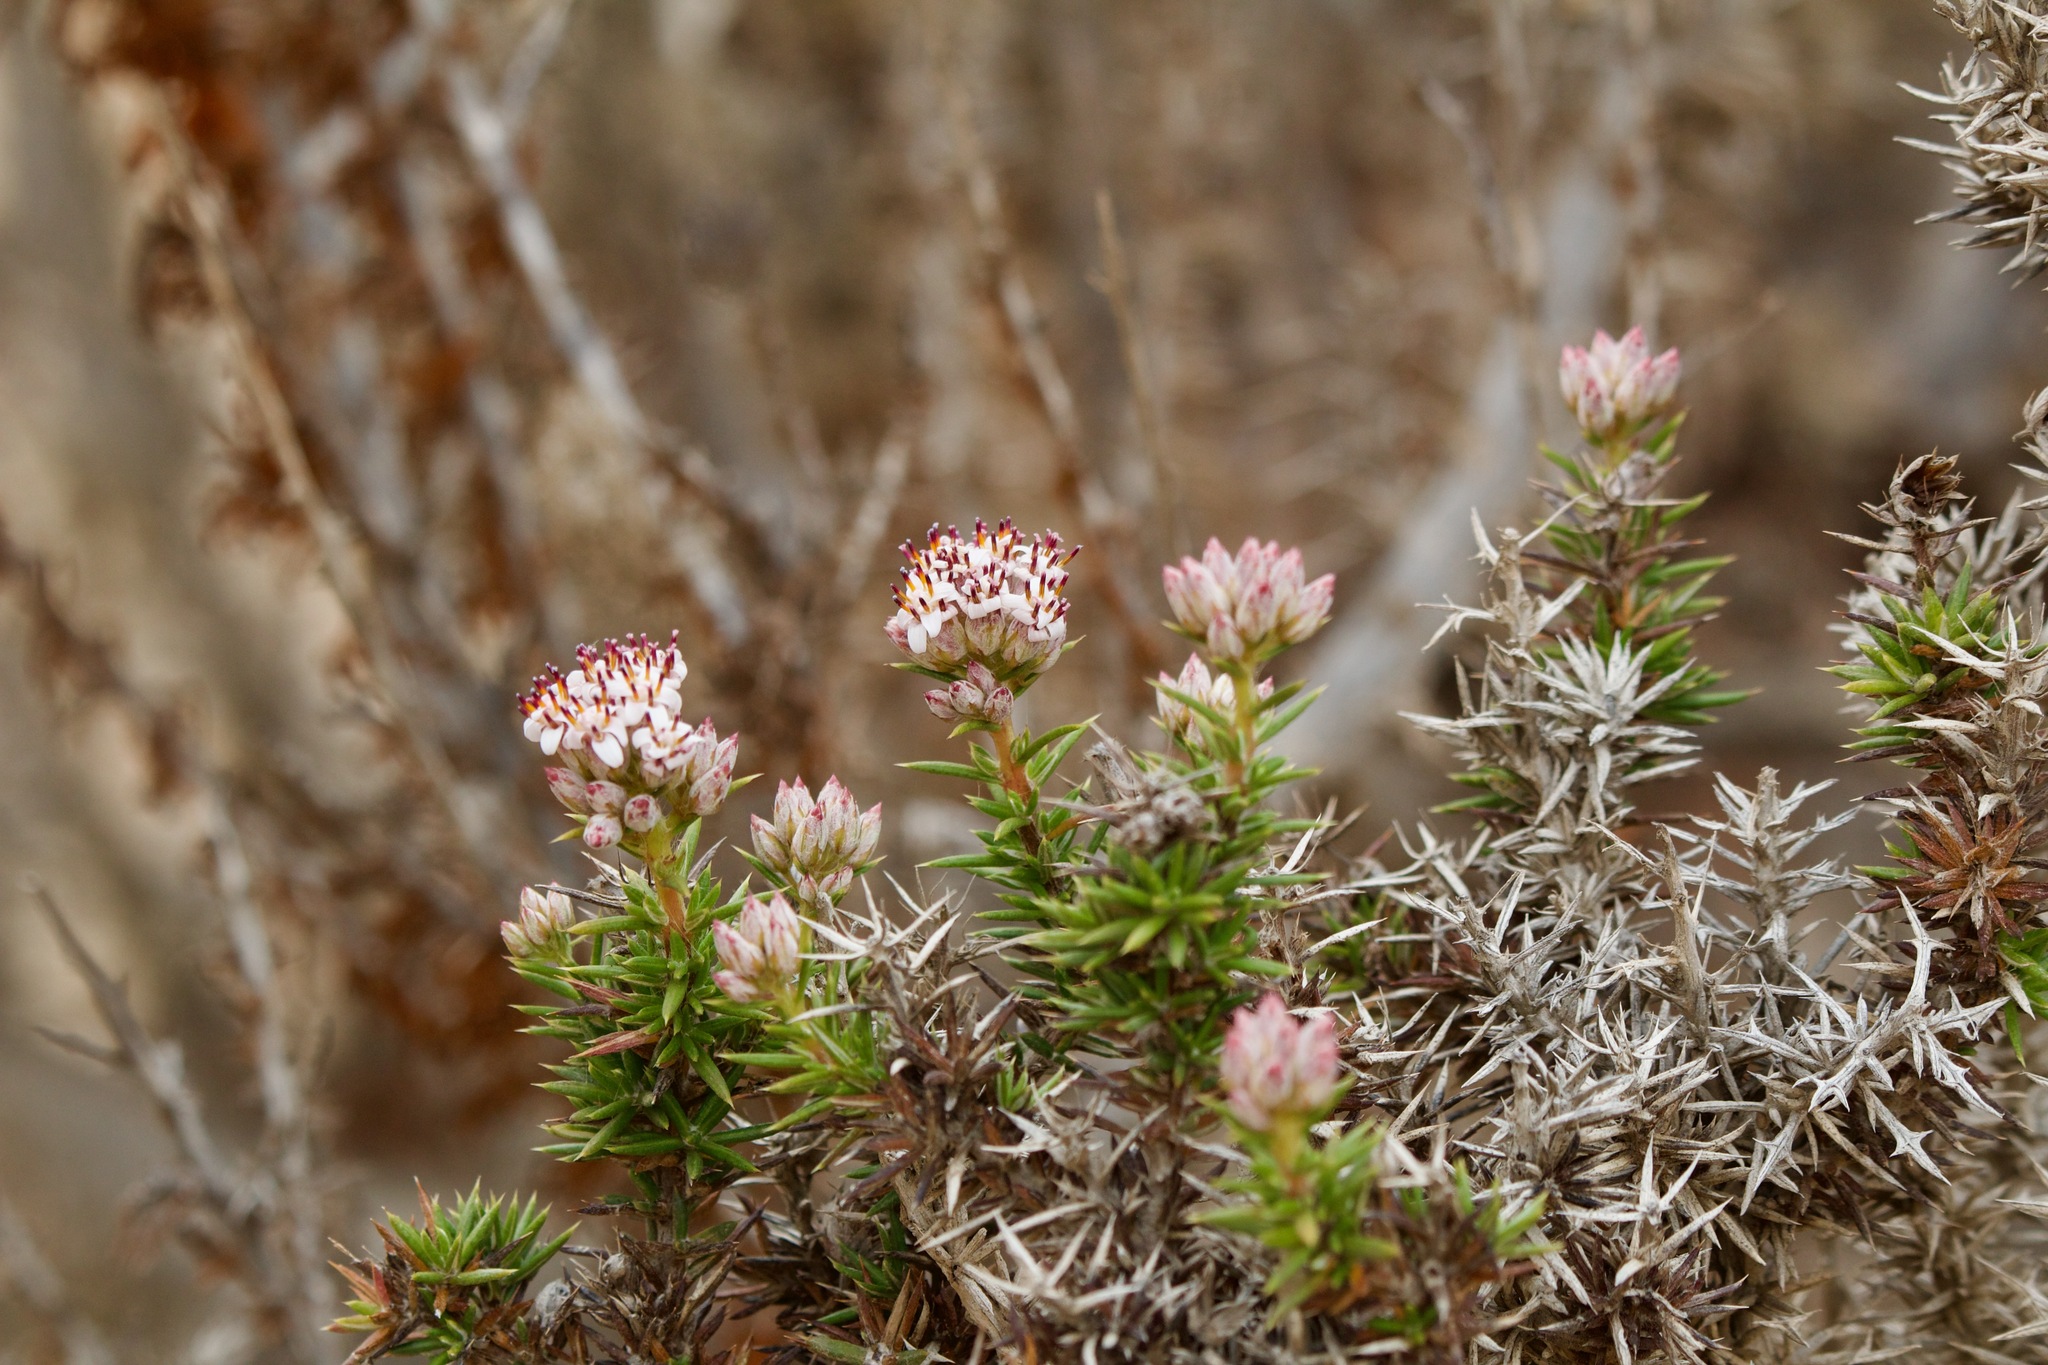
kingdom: Plantae
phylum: Tracheophyta
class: Magnoliopsida
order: Asterales
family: Asteraceae
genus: Oxyphyllum
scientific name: Oxyphyllum ulicinum
